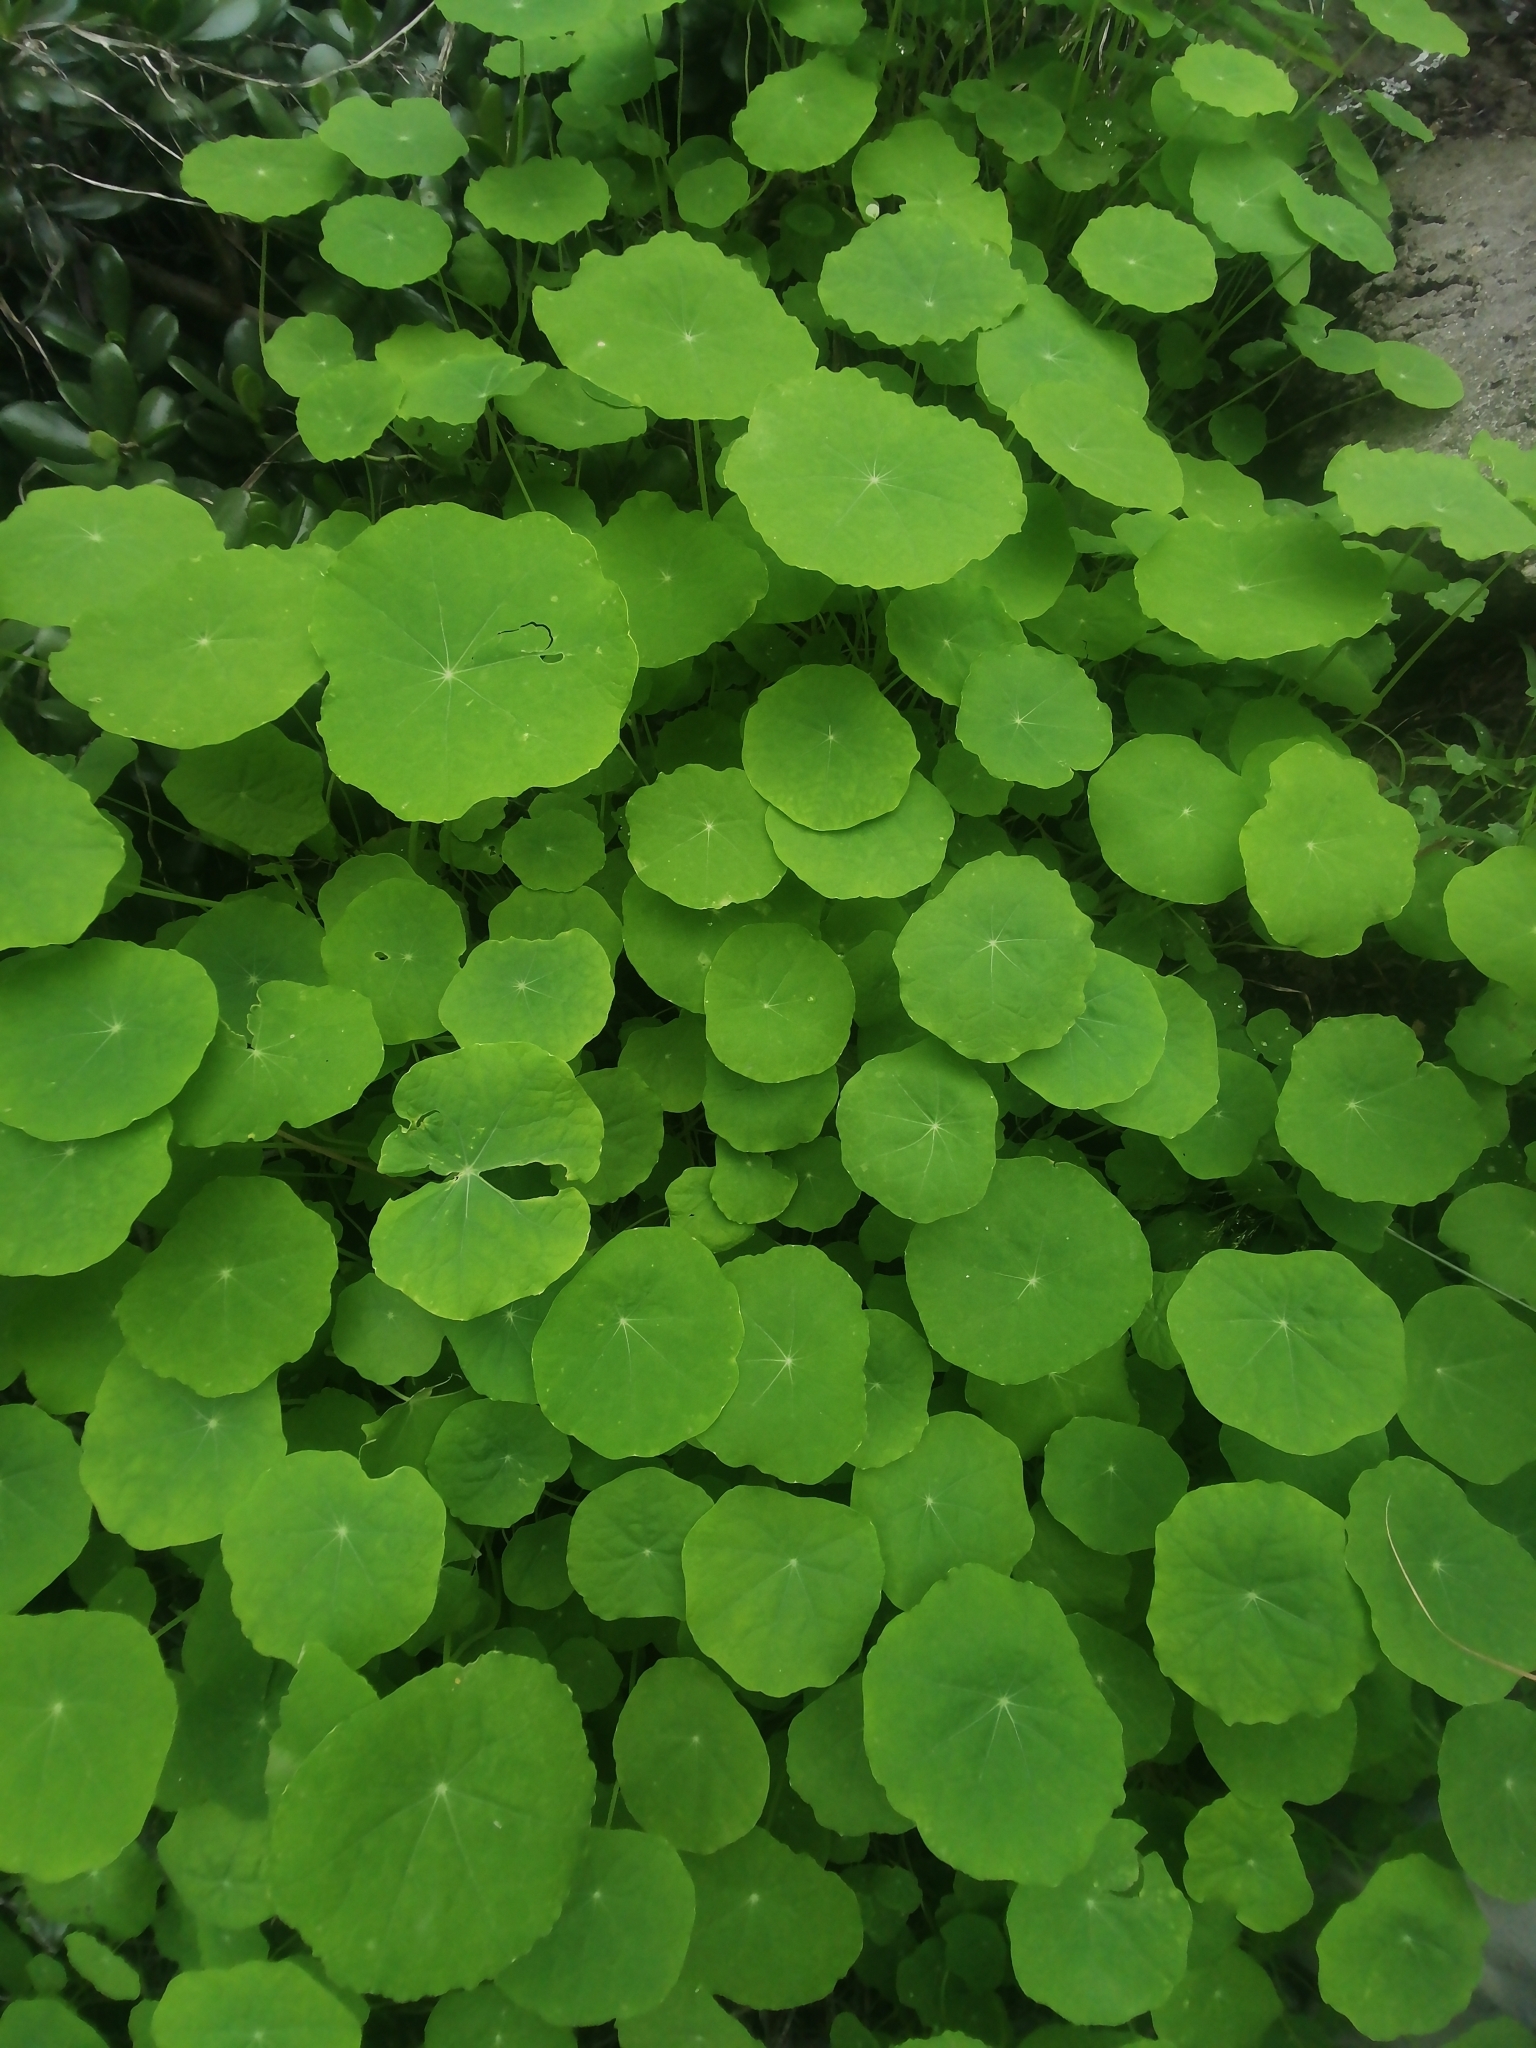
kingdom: Plantae
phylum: Tracheophyta
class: Magnoliopsida
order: Brassicales
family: Tropaeolaceae
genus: Tropaeolum
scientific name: Tropaeolum majus
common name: Nasturtium
